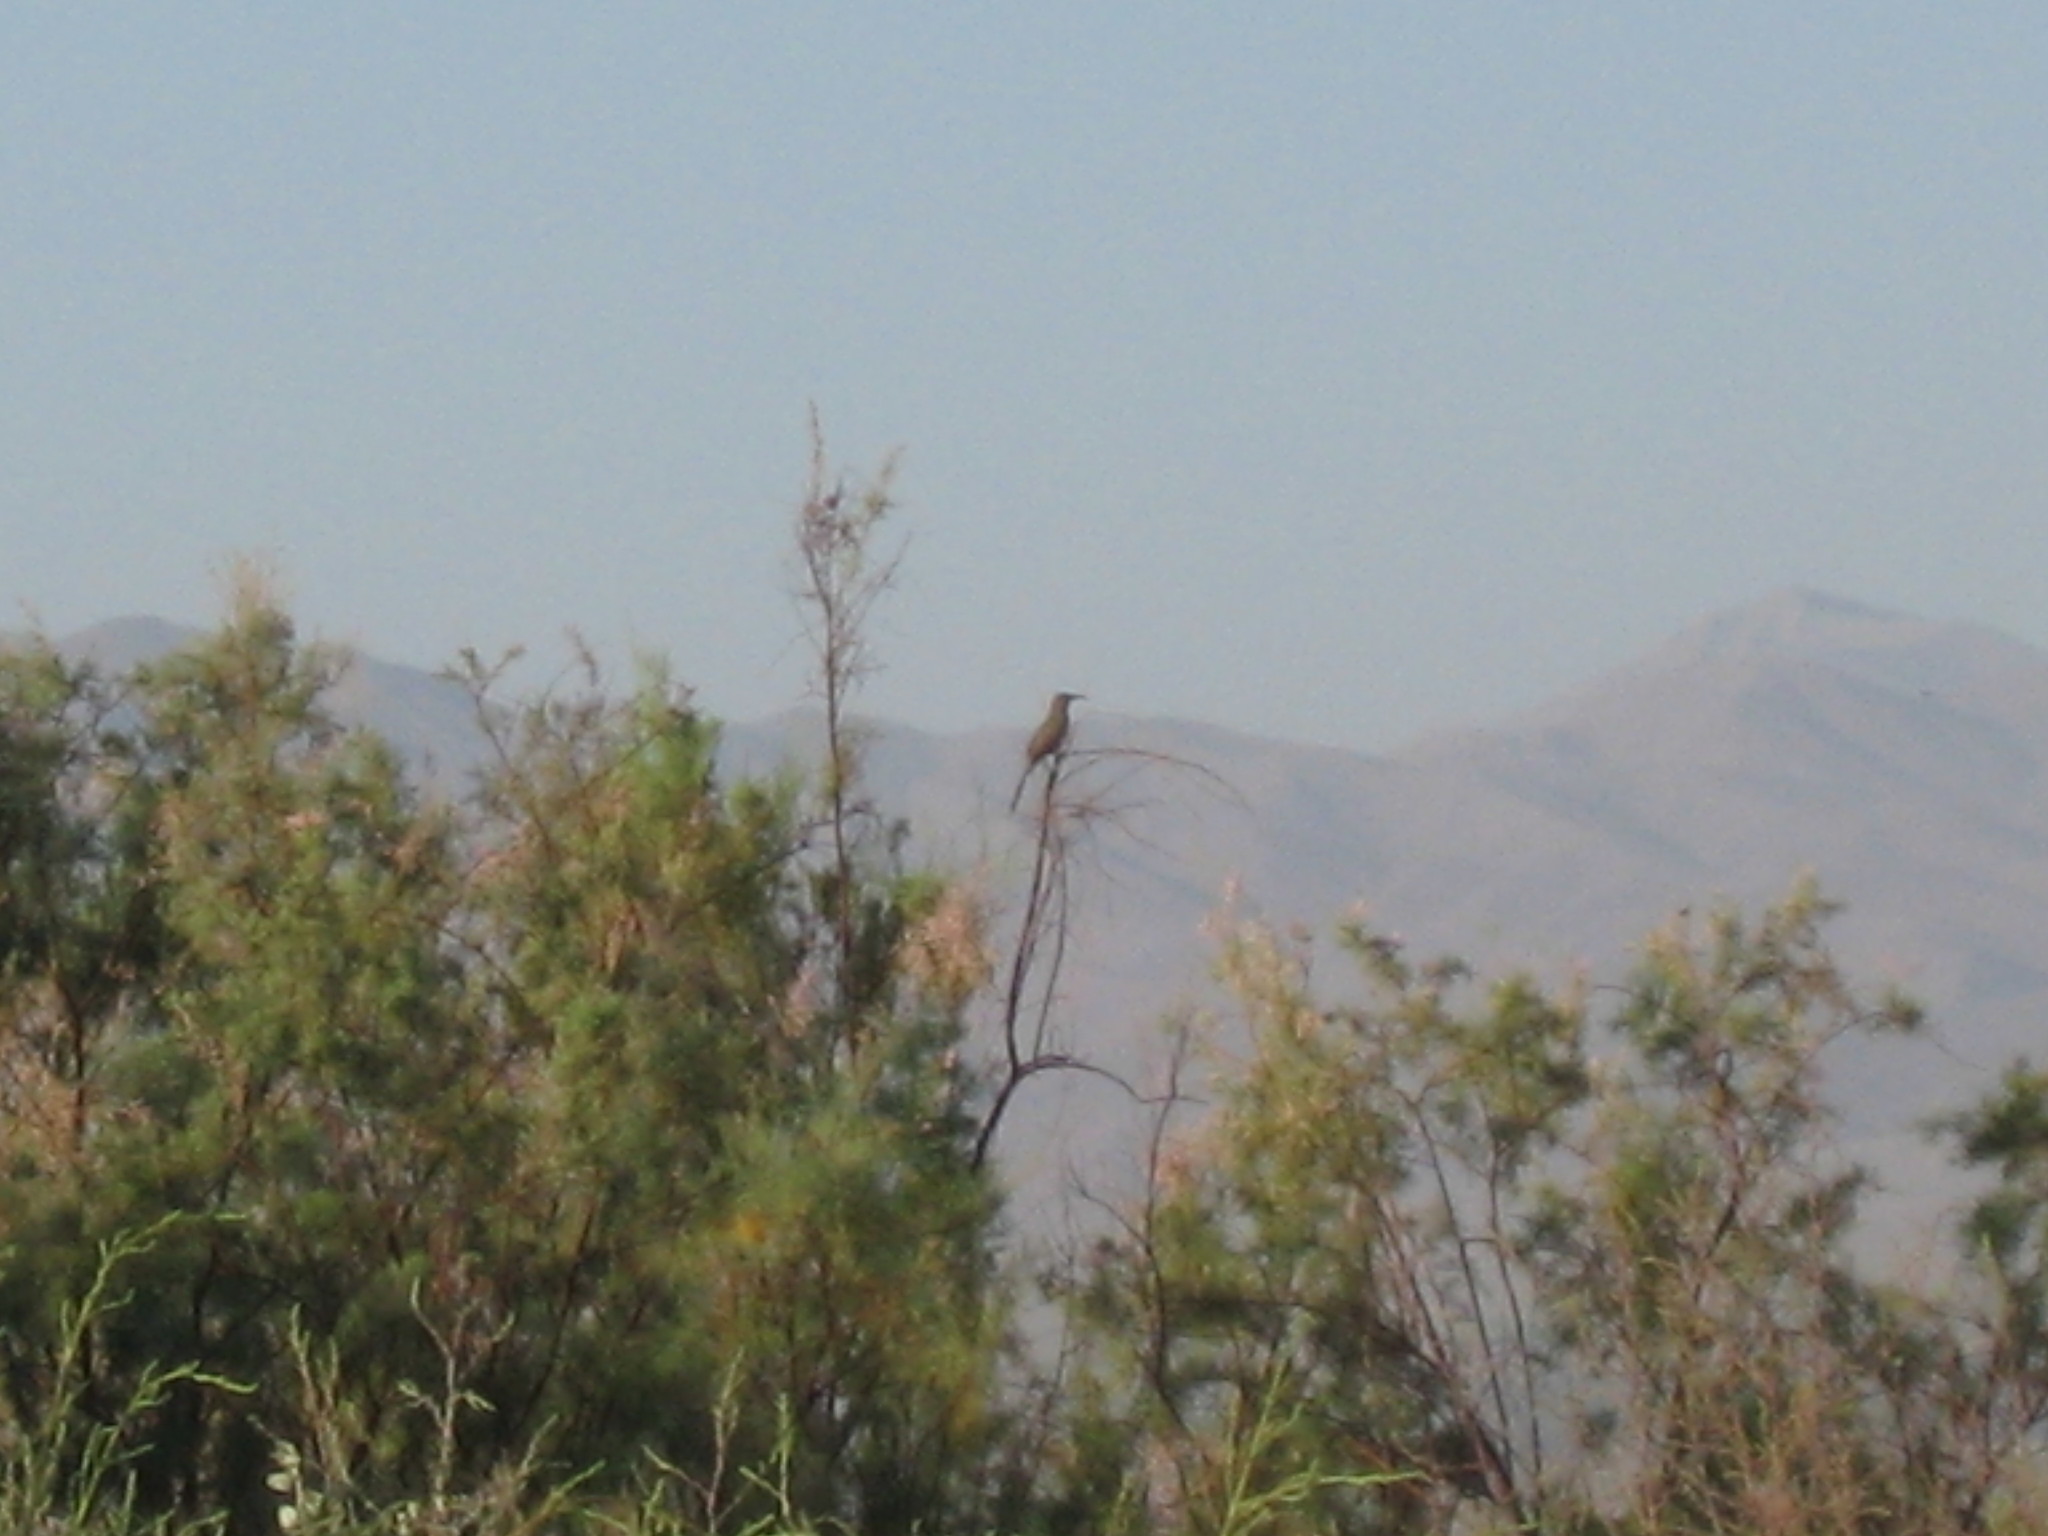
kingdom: Animalia
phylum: Chordata
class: Aves
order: Passeriformes
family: Mimidae
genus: Toxostoma
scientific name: Toxostoma crissale
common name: Crissal thrasher
